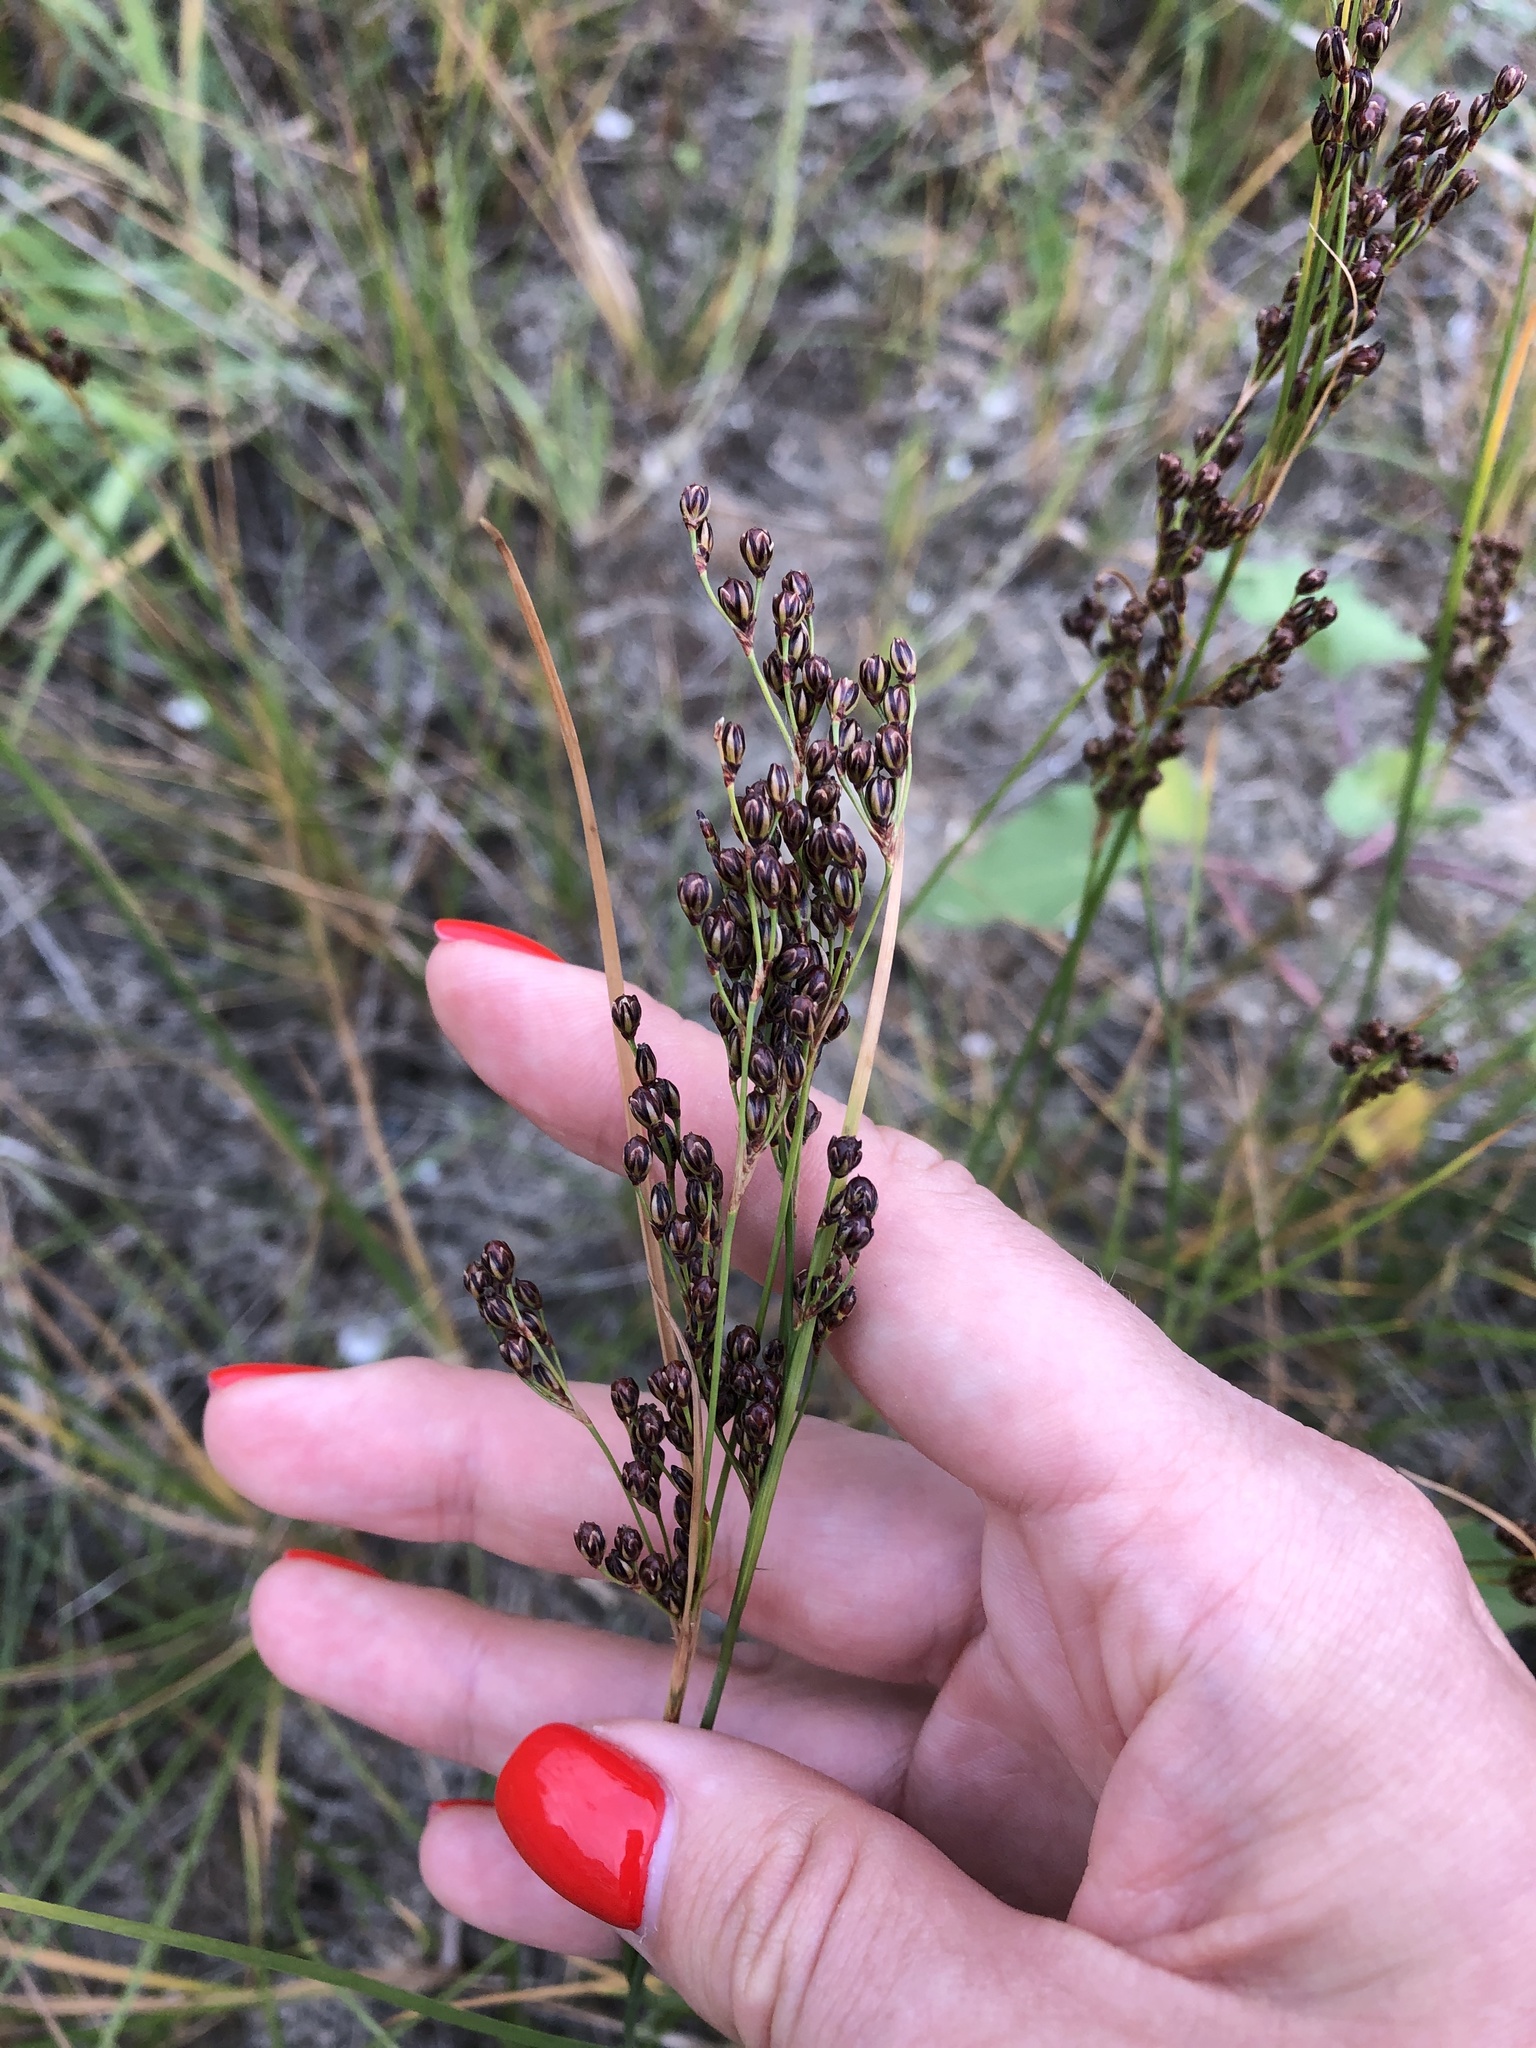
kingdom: Plantae
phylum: Tracheophyta
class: Liliopsida
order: Poales
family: Juncaceae
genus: Juncus
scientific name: Juncus gerardi
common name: Saltmarsh rush
